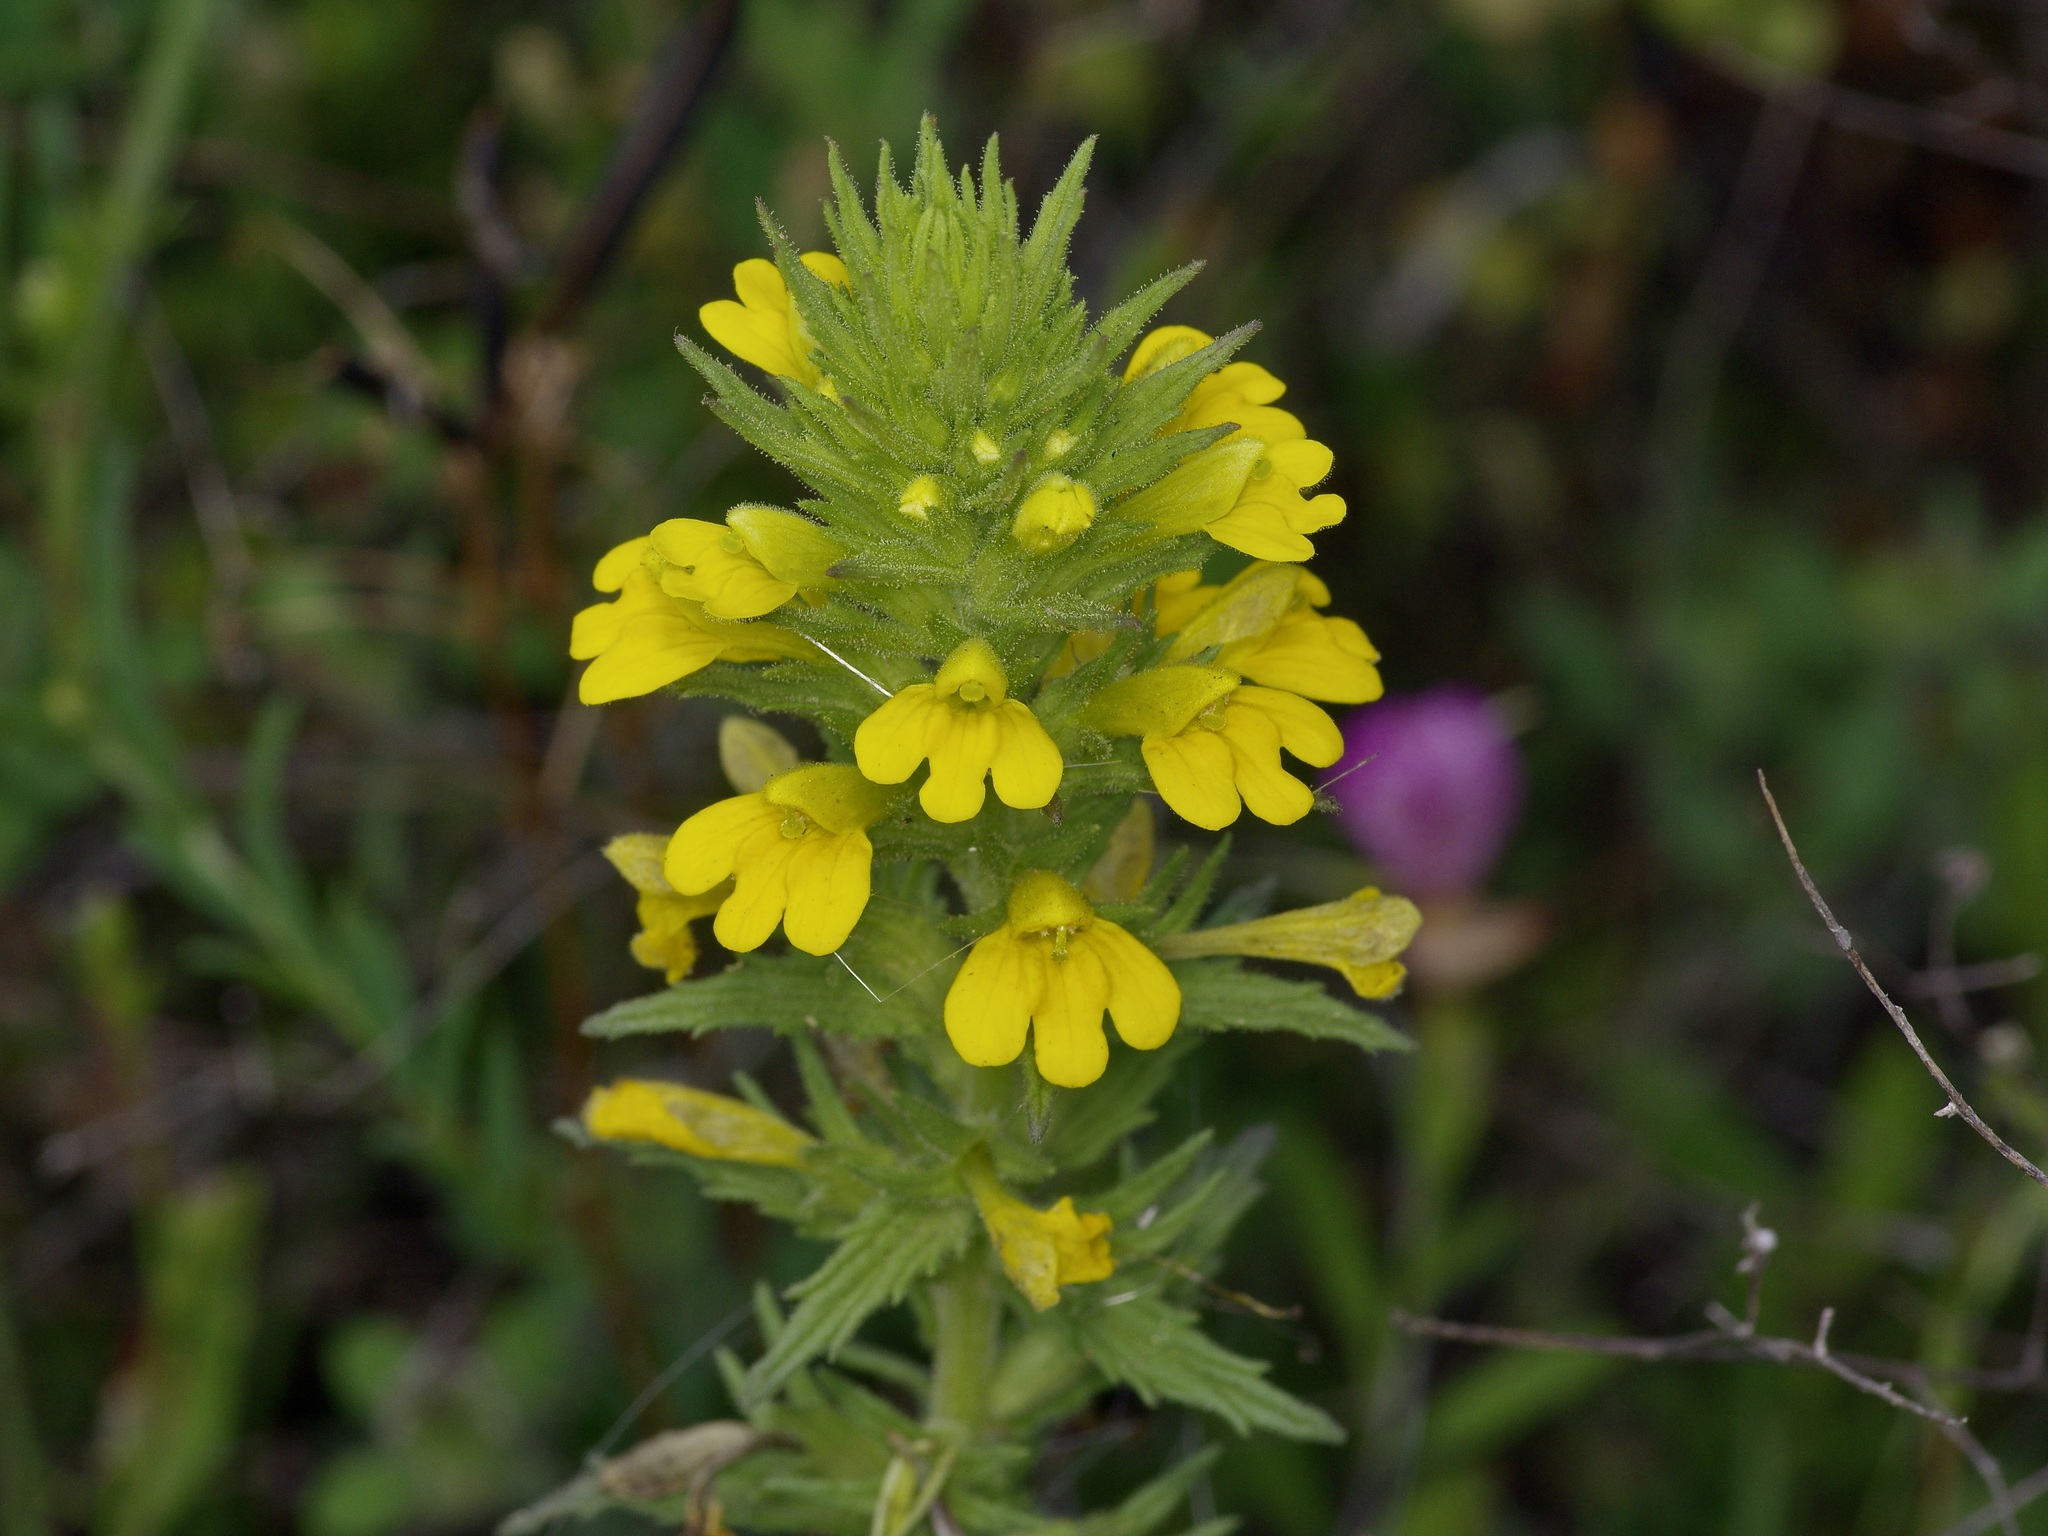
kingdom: Plantae
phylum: Tracheophyta
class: Magnoliopsida
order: Lamiales
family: Orobanchaceae
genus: Bellardia
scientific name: Bellardia viscosa
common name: Sticky parentucellia
